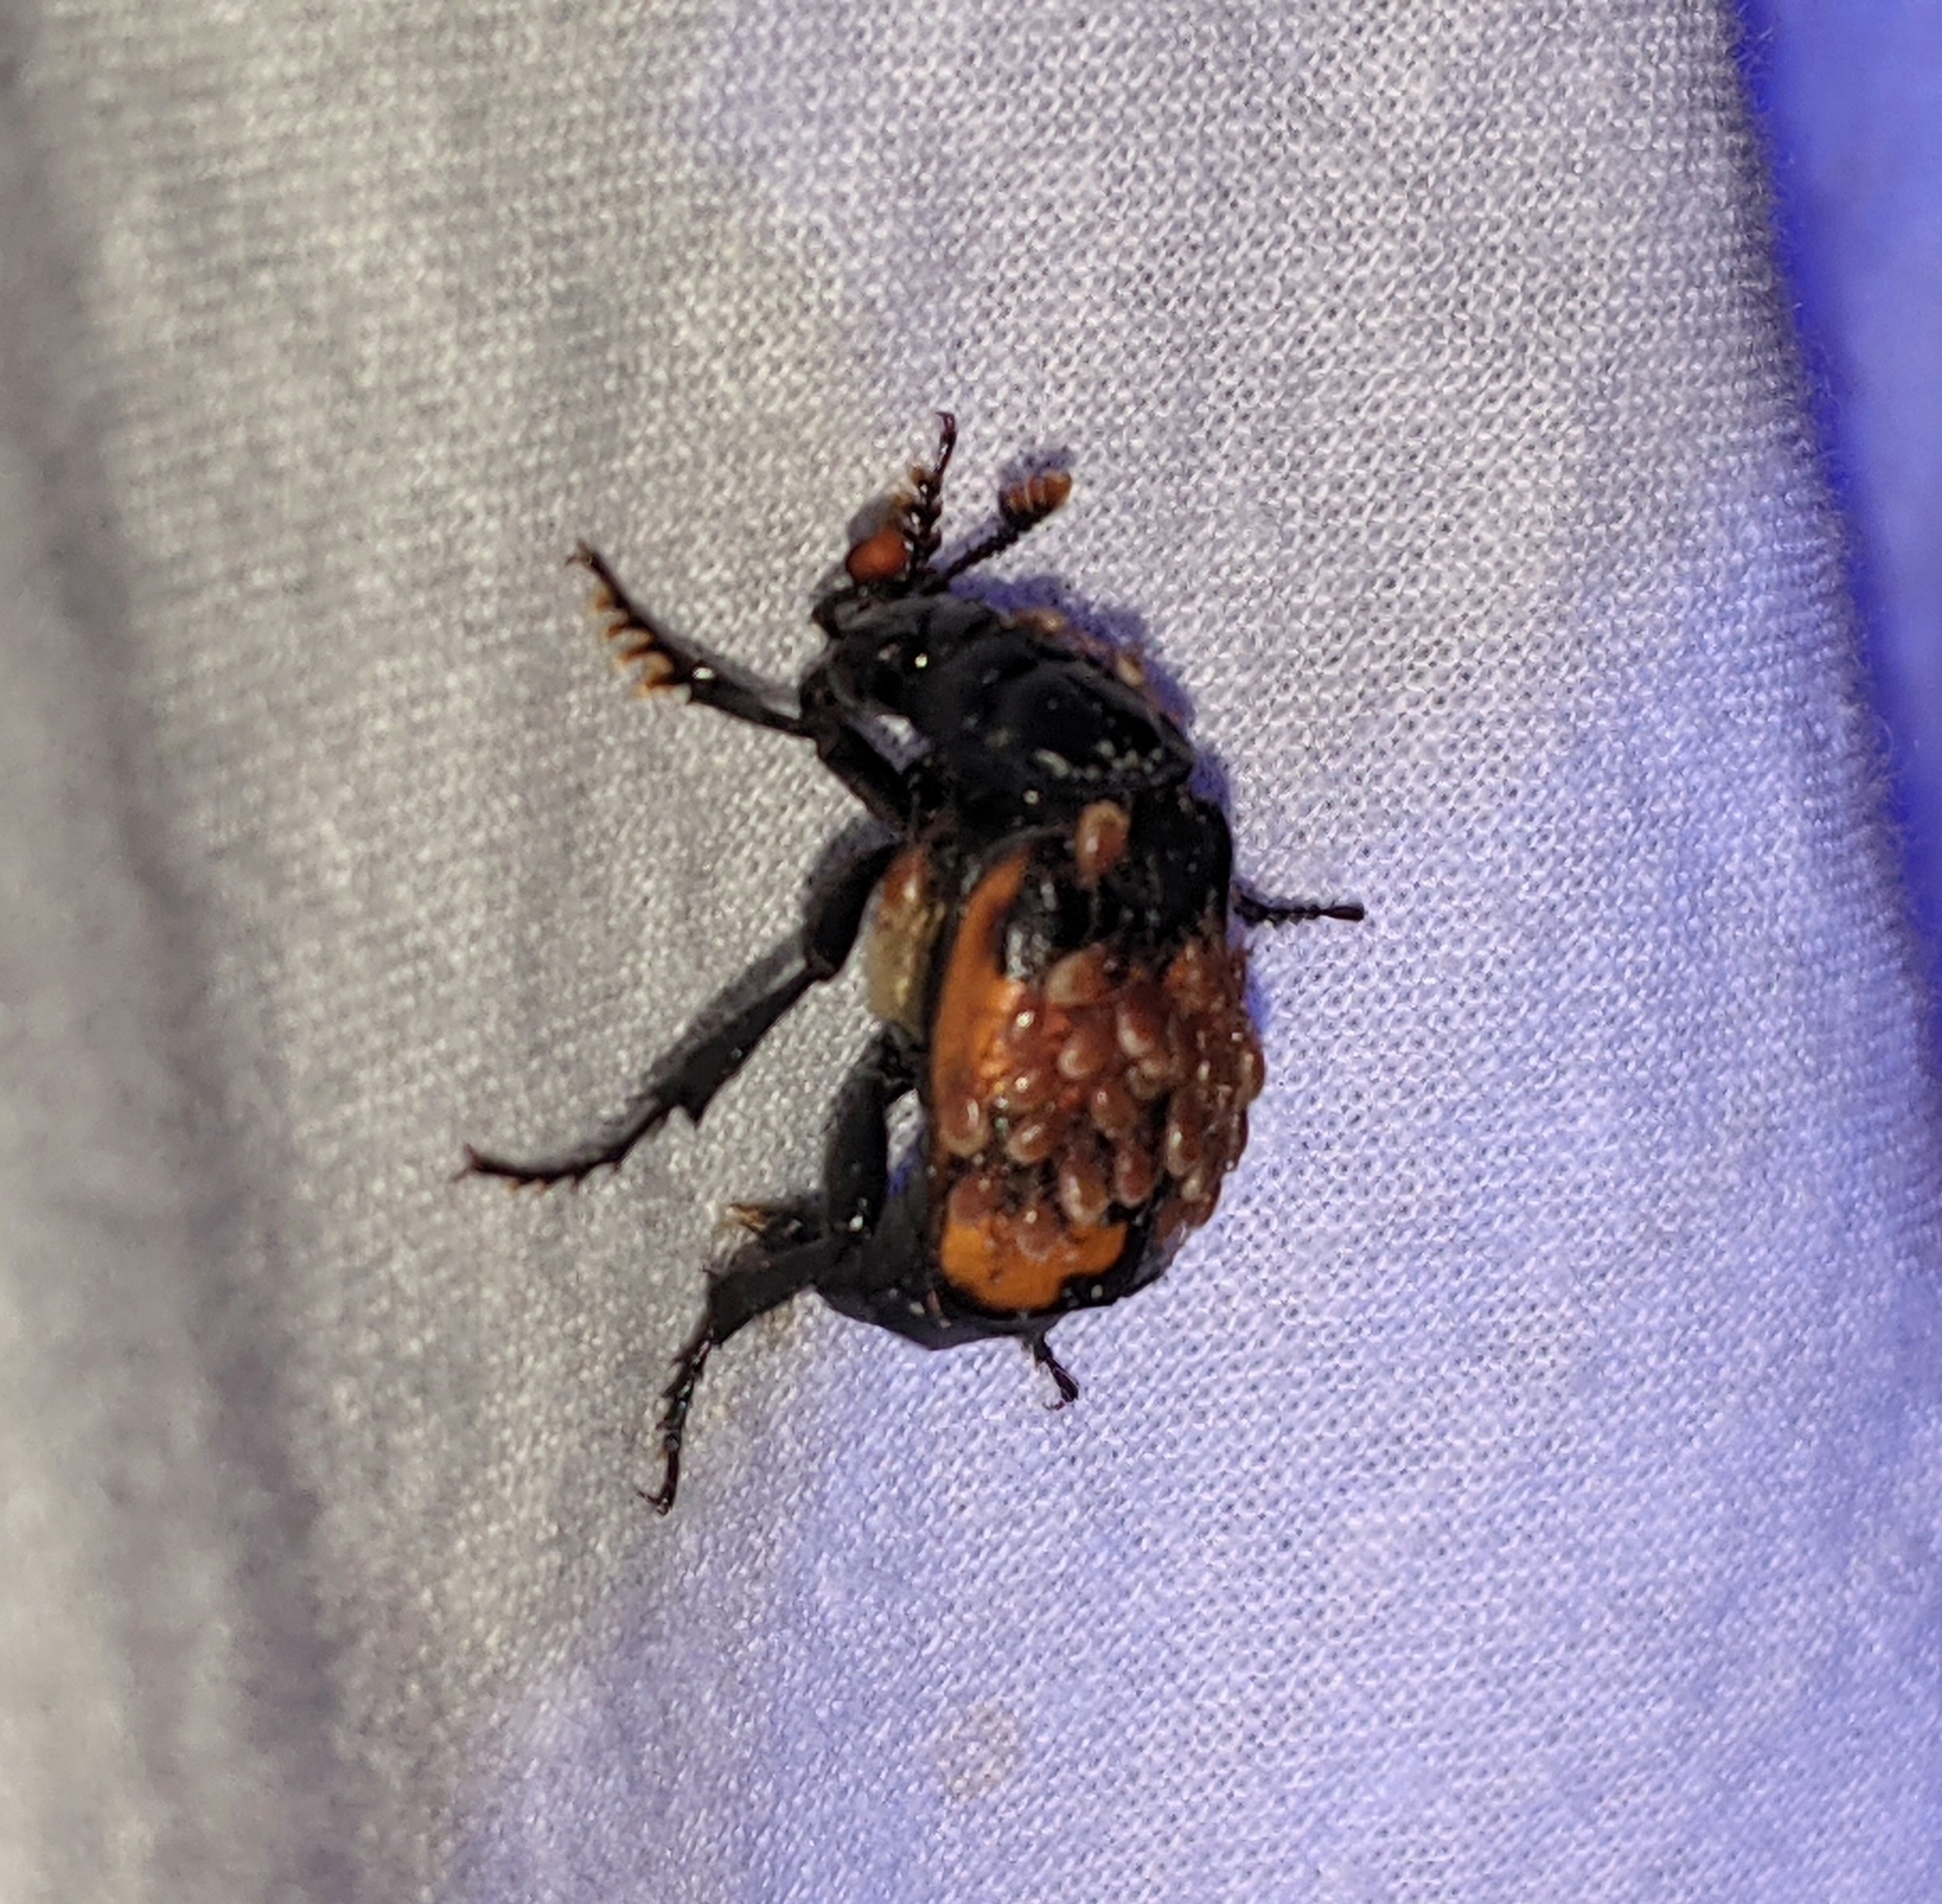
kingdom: Animalia
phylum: Arthropoda
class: Insecta
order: Coleoptera
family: Staphylinidae
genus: Nicrophorus
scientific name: Nicrophorus investigator
